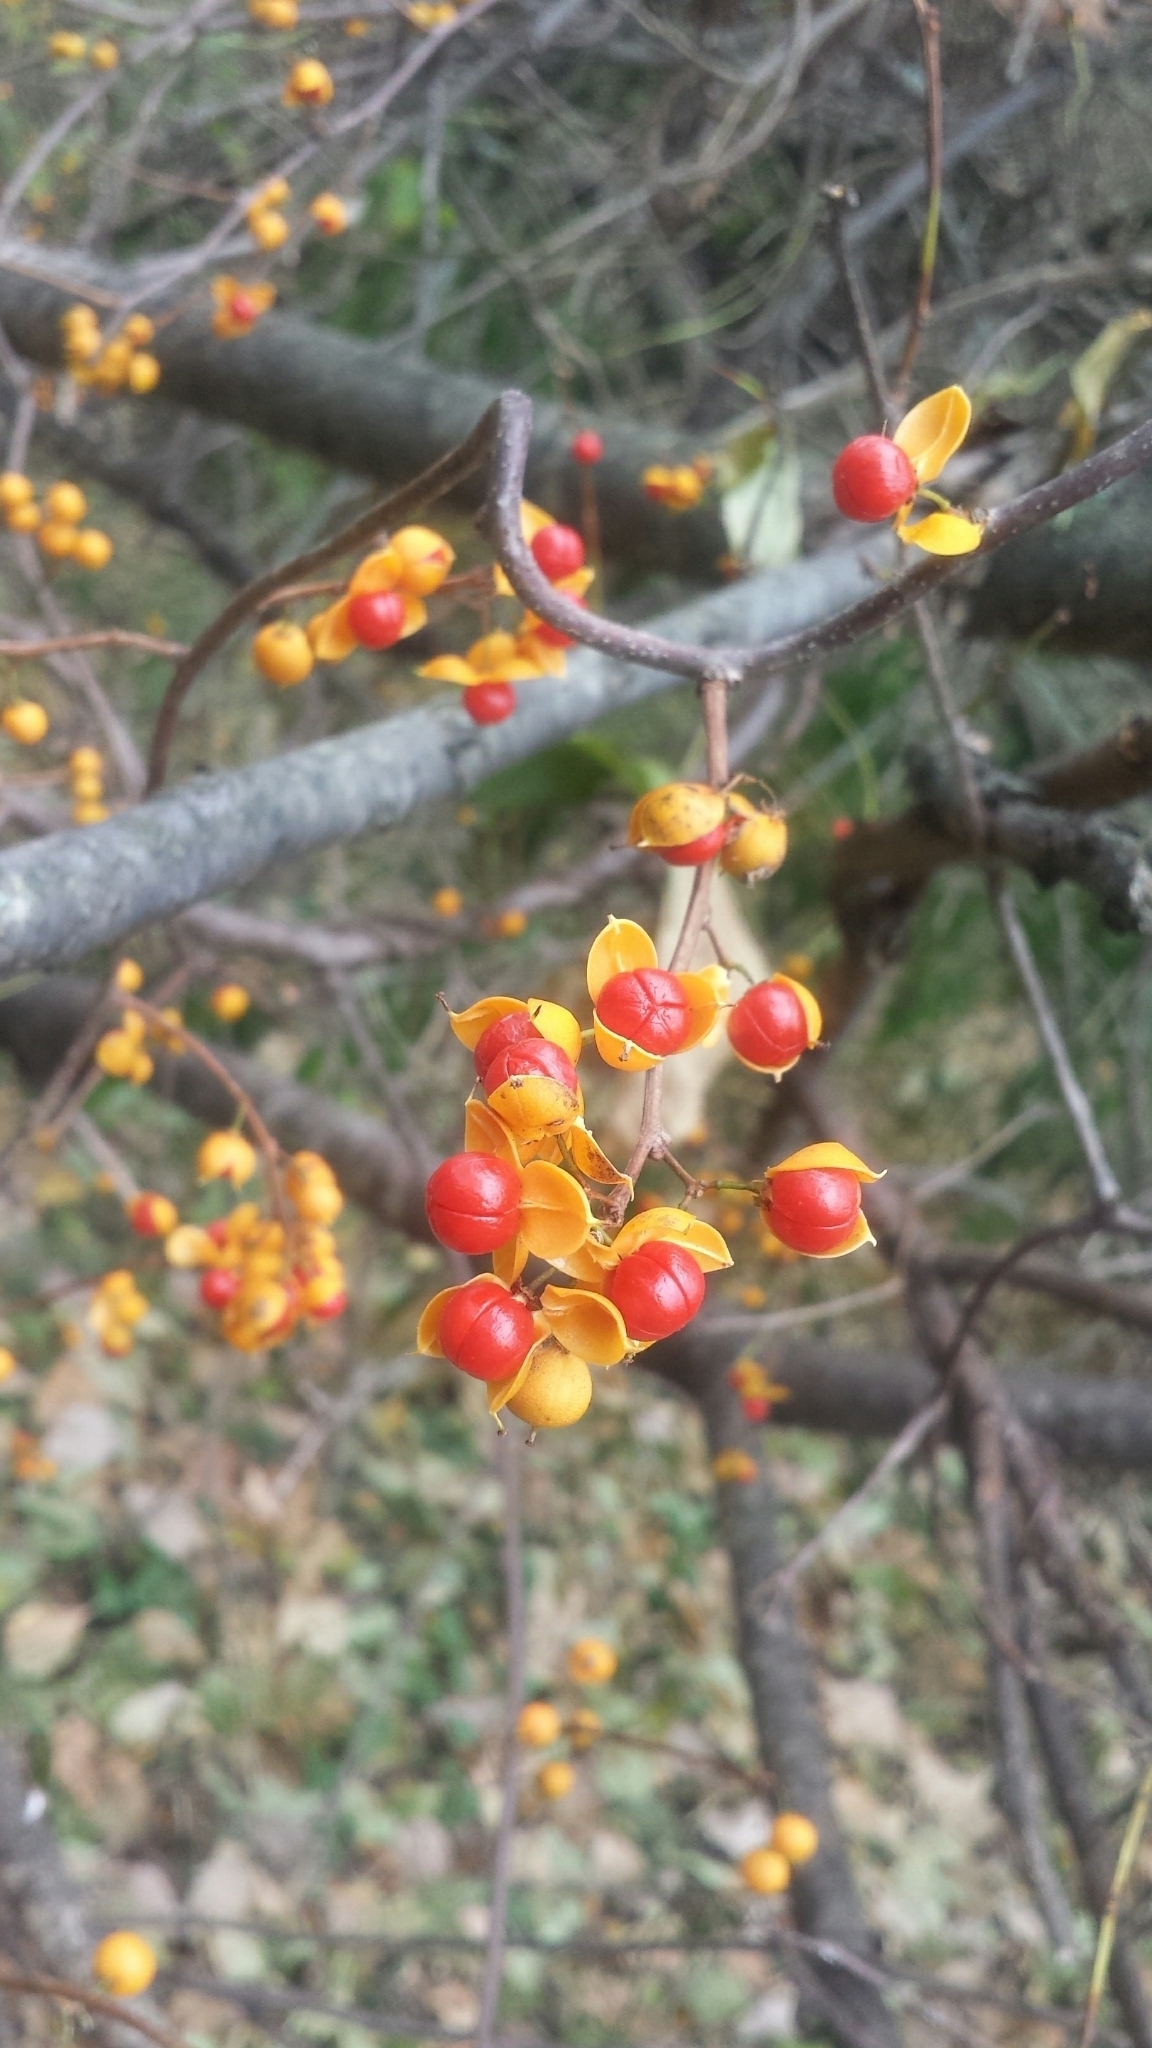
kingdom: Plantae
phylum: Tracheophyta
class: Magnoliopsida
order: Celastrales
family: Celastraceae
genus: Celastrus
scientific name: Celastrus orbiculatus
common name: Oriental bittersweet
